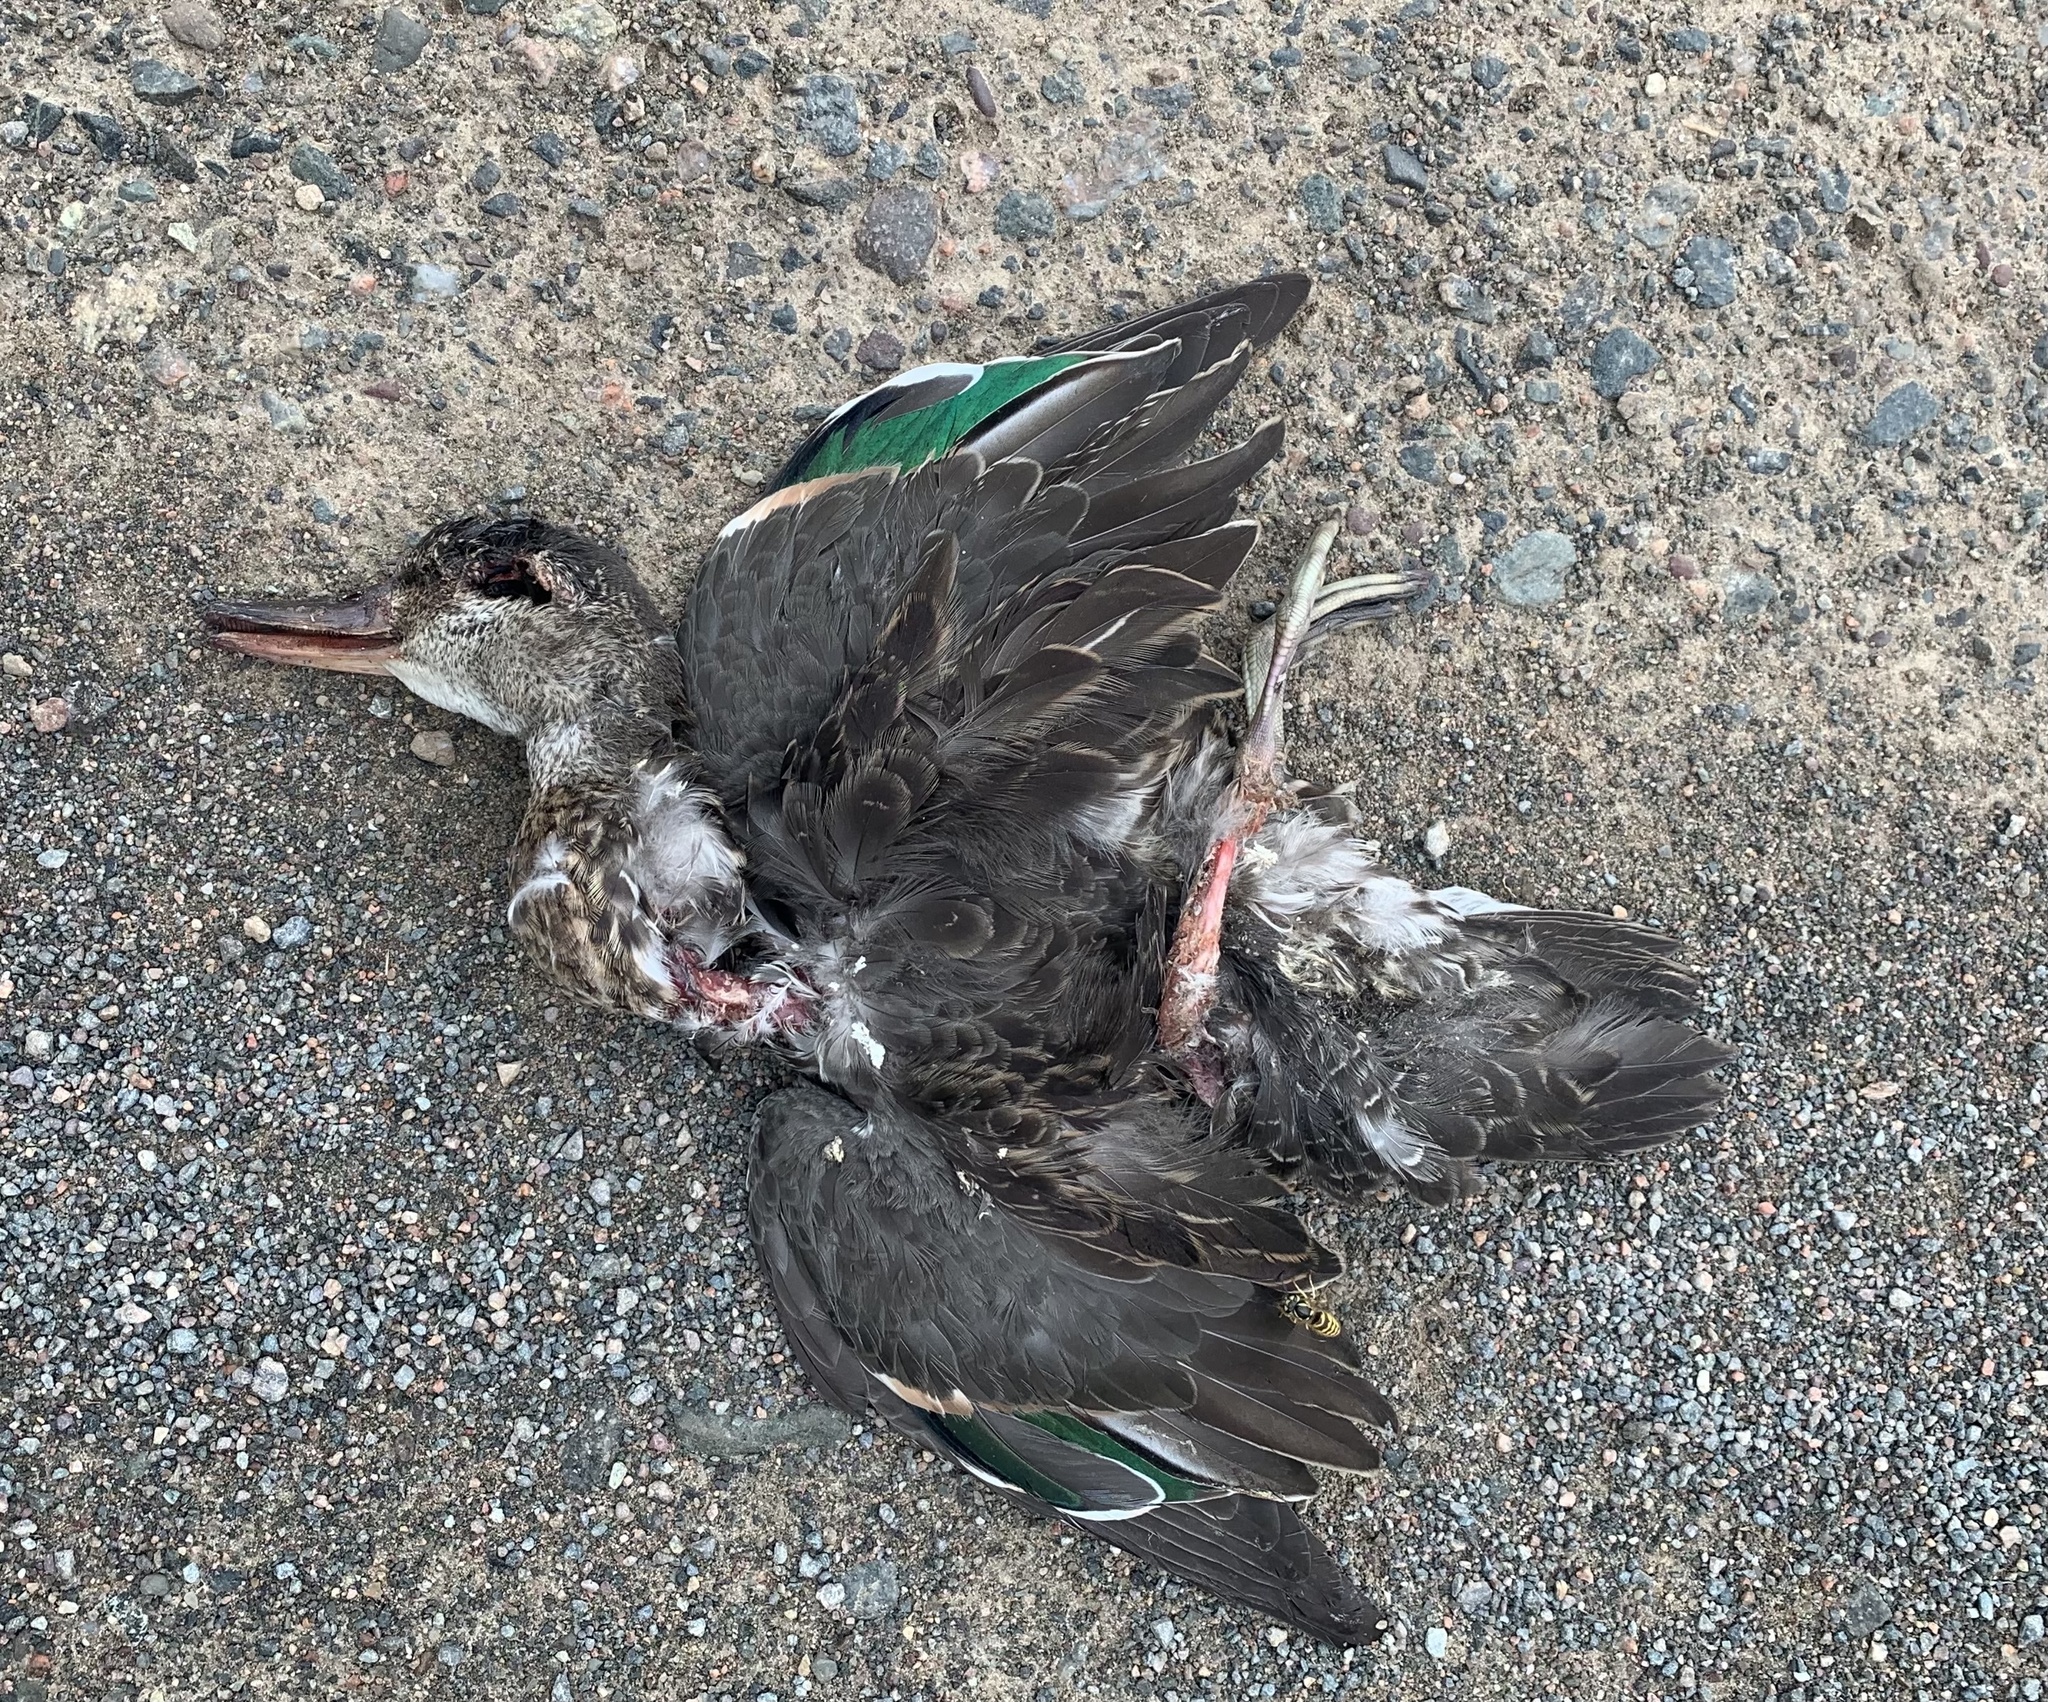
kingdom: Animalia
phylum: Chordata
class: Aves
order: Anseriformes
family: Anatidae
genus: Anas
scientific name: Anas crecca
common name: Eurasian teal
